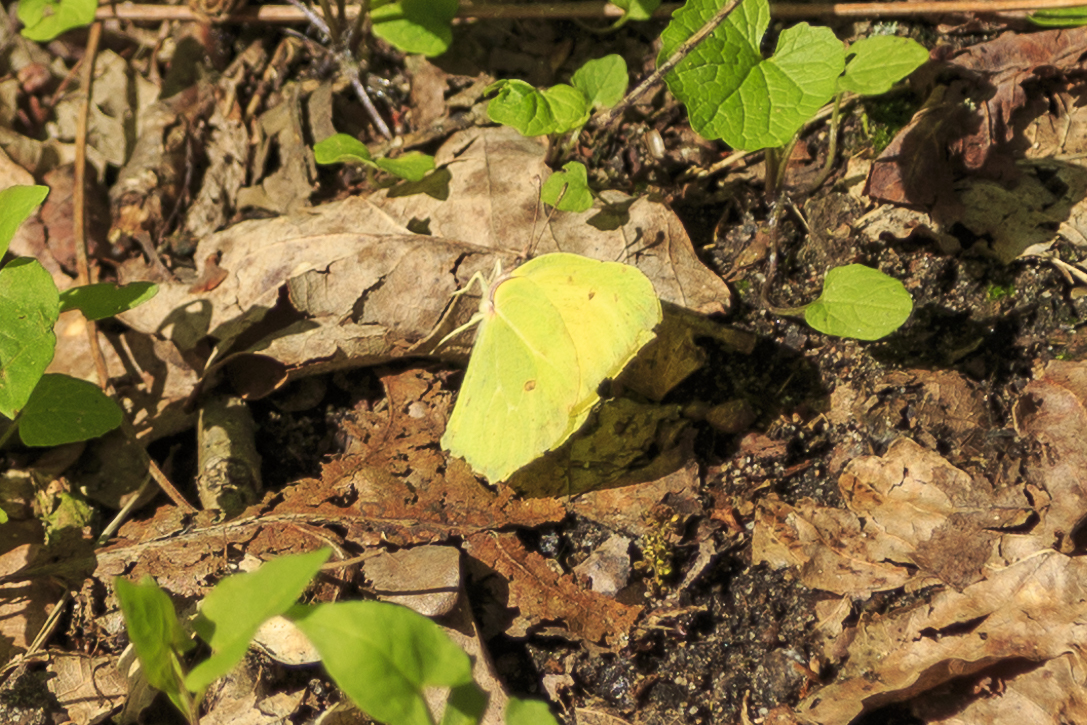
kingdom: Animalia
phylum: Arthropoda
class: Insecta
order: Lepidoptera
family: Pieridae
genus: Gonepteryx
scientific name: Gonepteryx rhamni
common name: Brimstone
